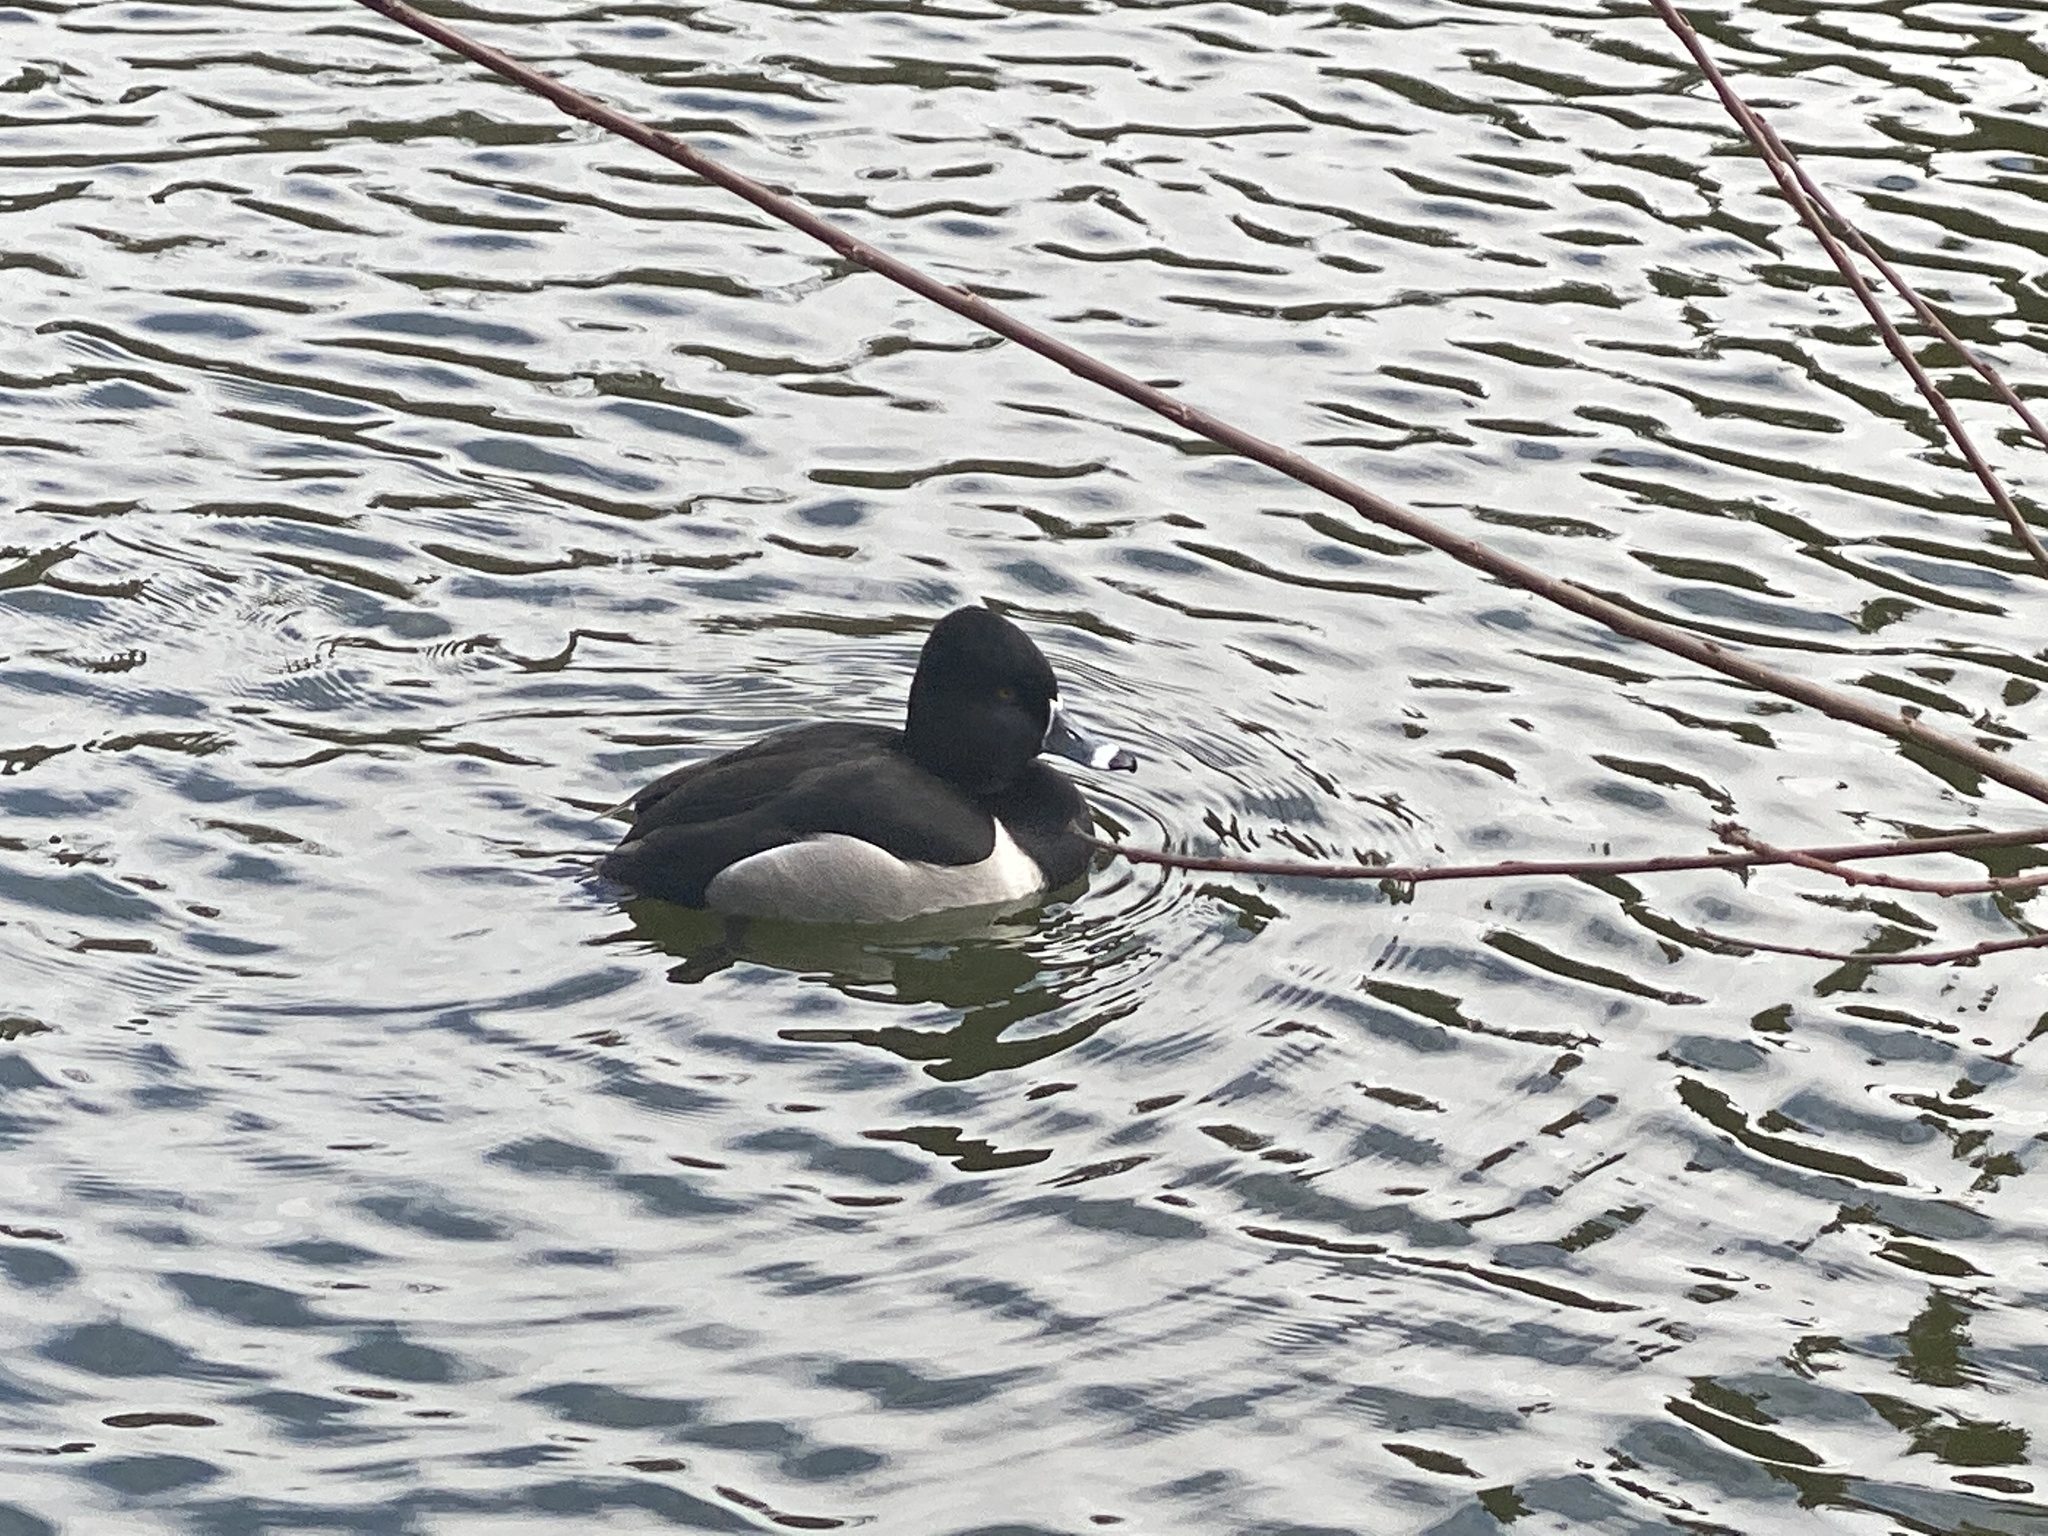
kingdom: Animalia
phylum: Chordata
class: Aves
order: Anseriformes
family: Anatidae
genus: Aythya
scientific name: Aythya collaris
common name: Ring-necked duck
